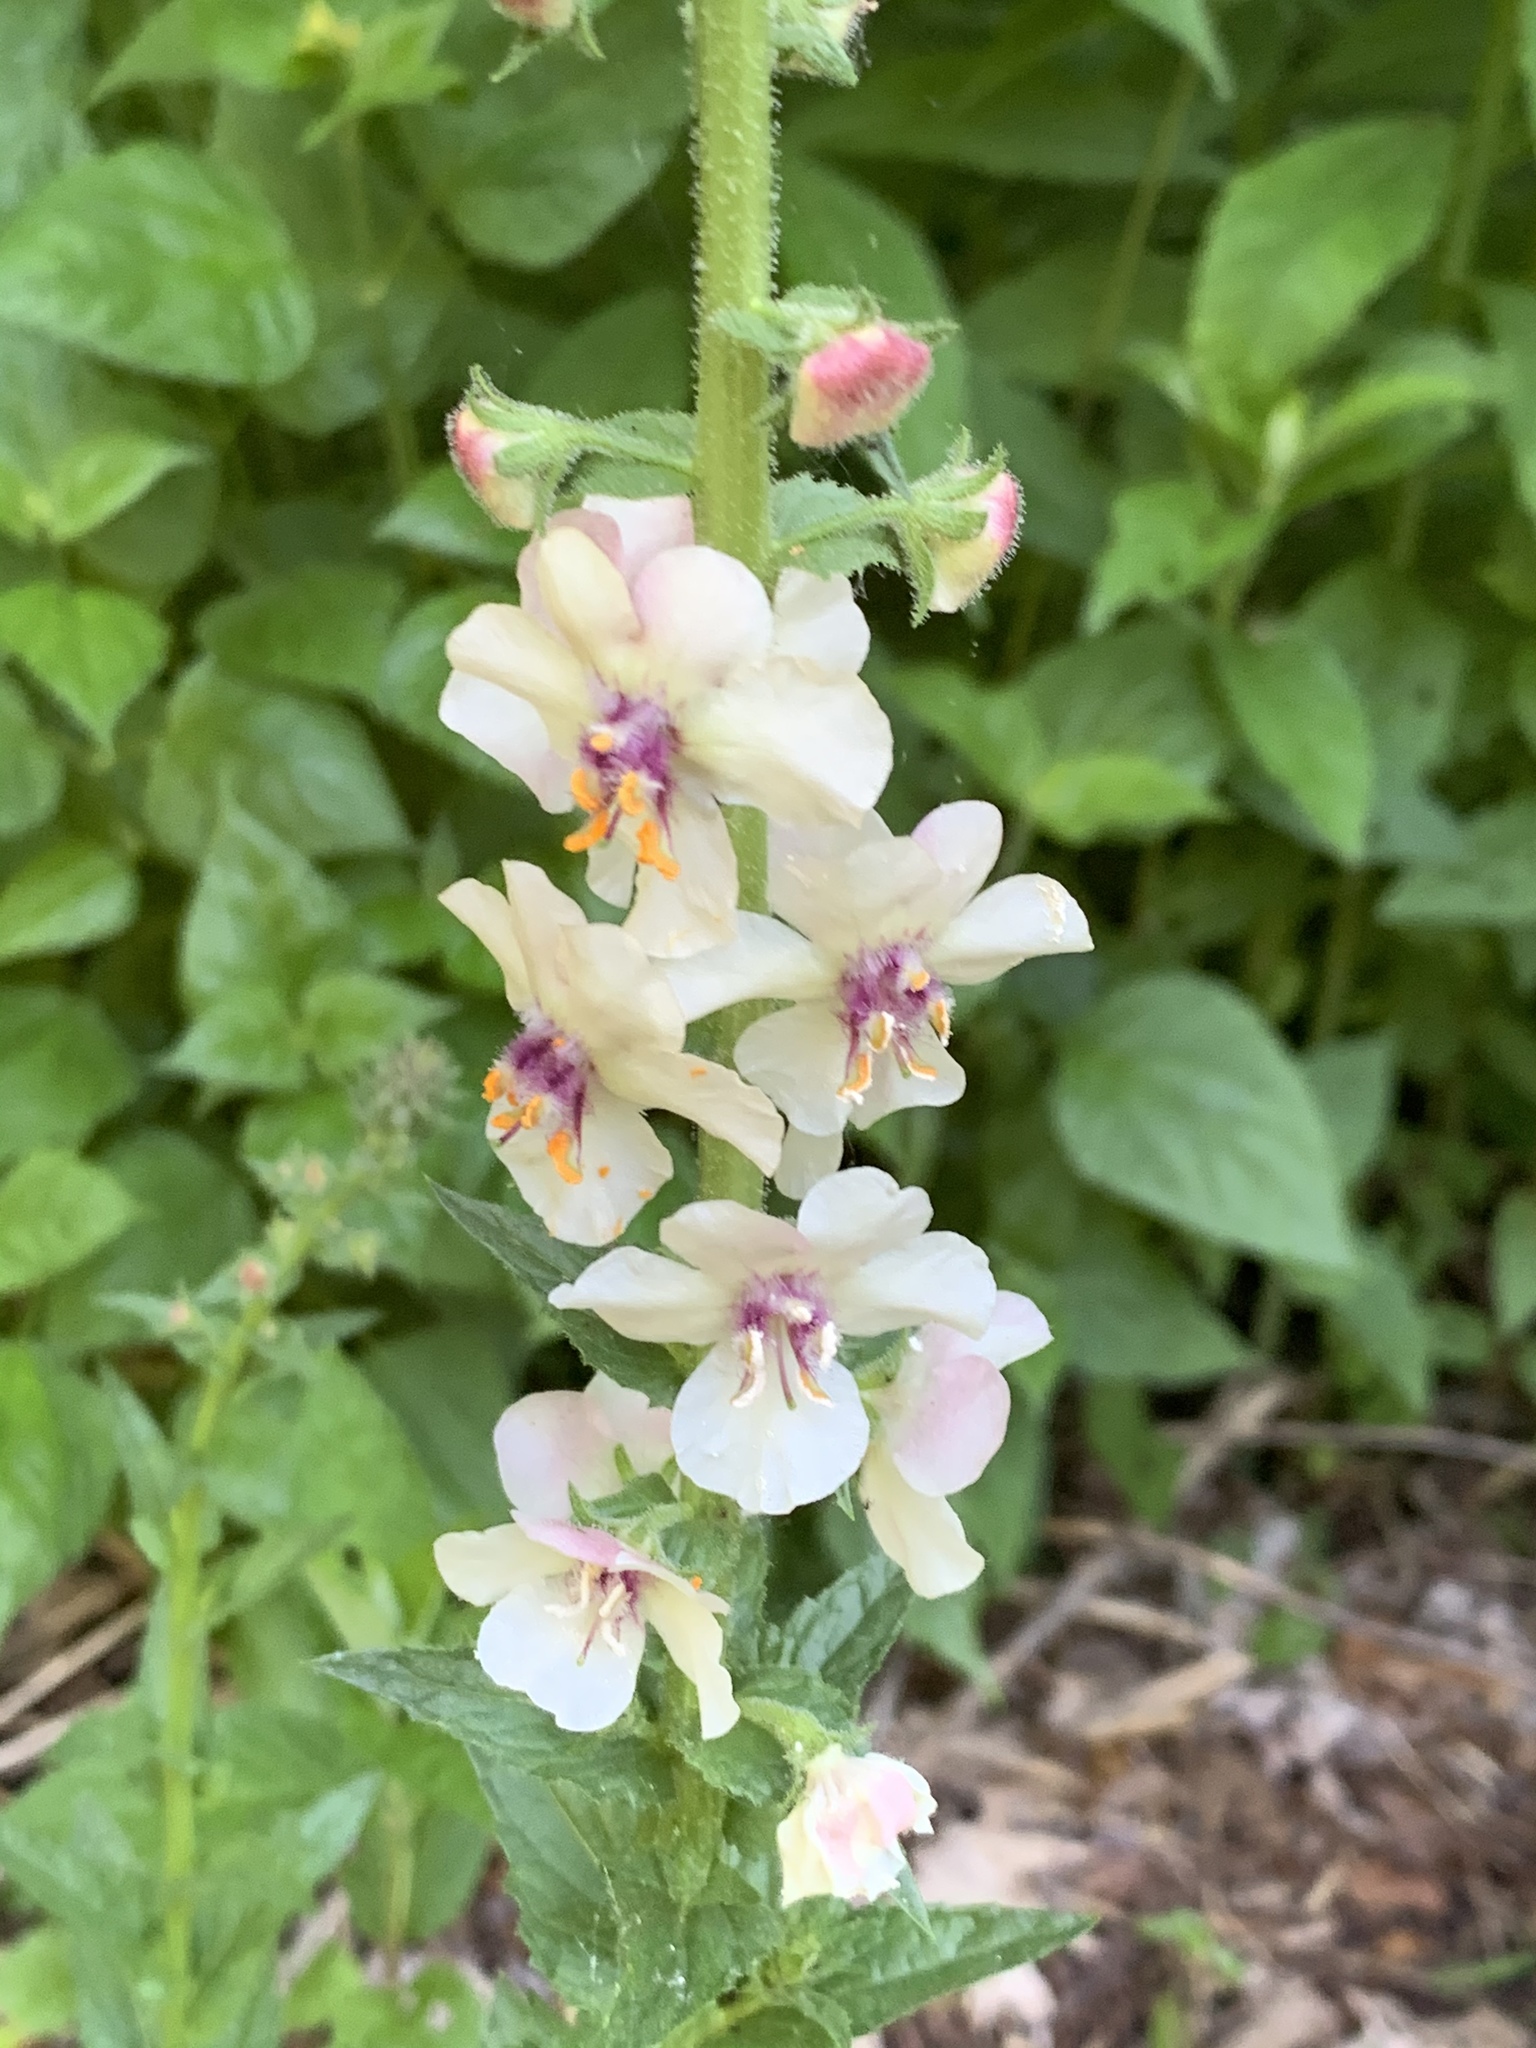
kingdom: Plantae
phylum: Tracheophyta
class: Magnoliopsida
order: Lamiales
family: Scrophulariaceae
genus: Verbascum
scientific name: Verbascum blattaria
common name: Moth mullein
